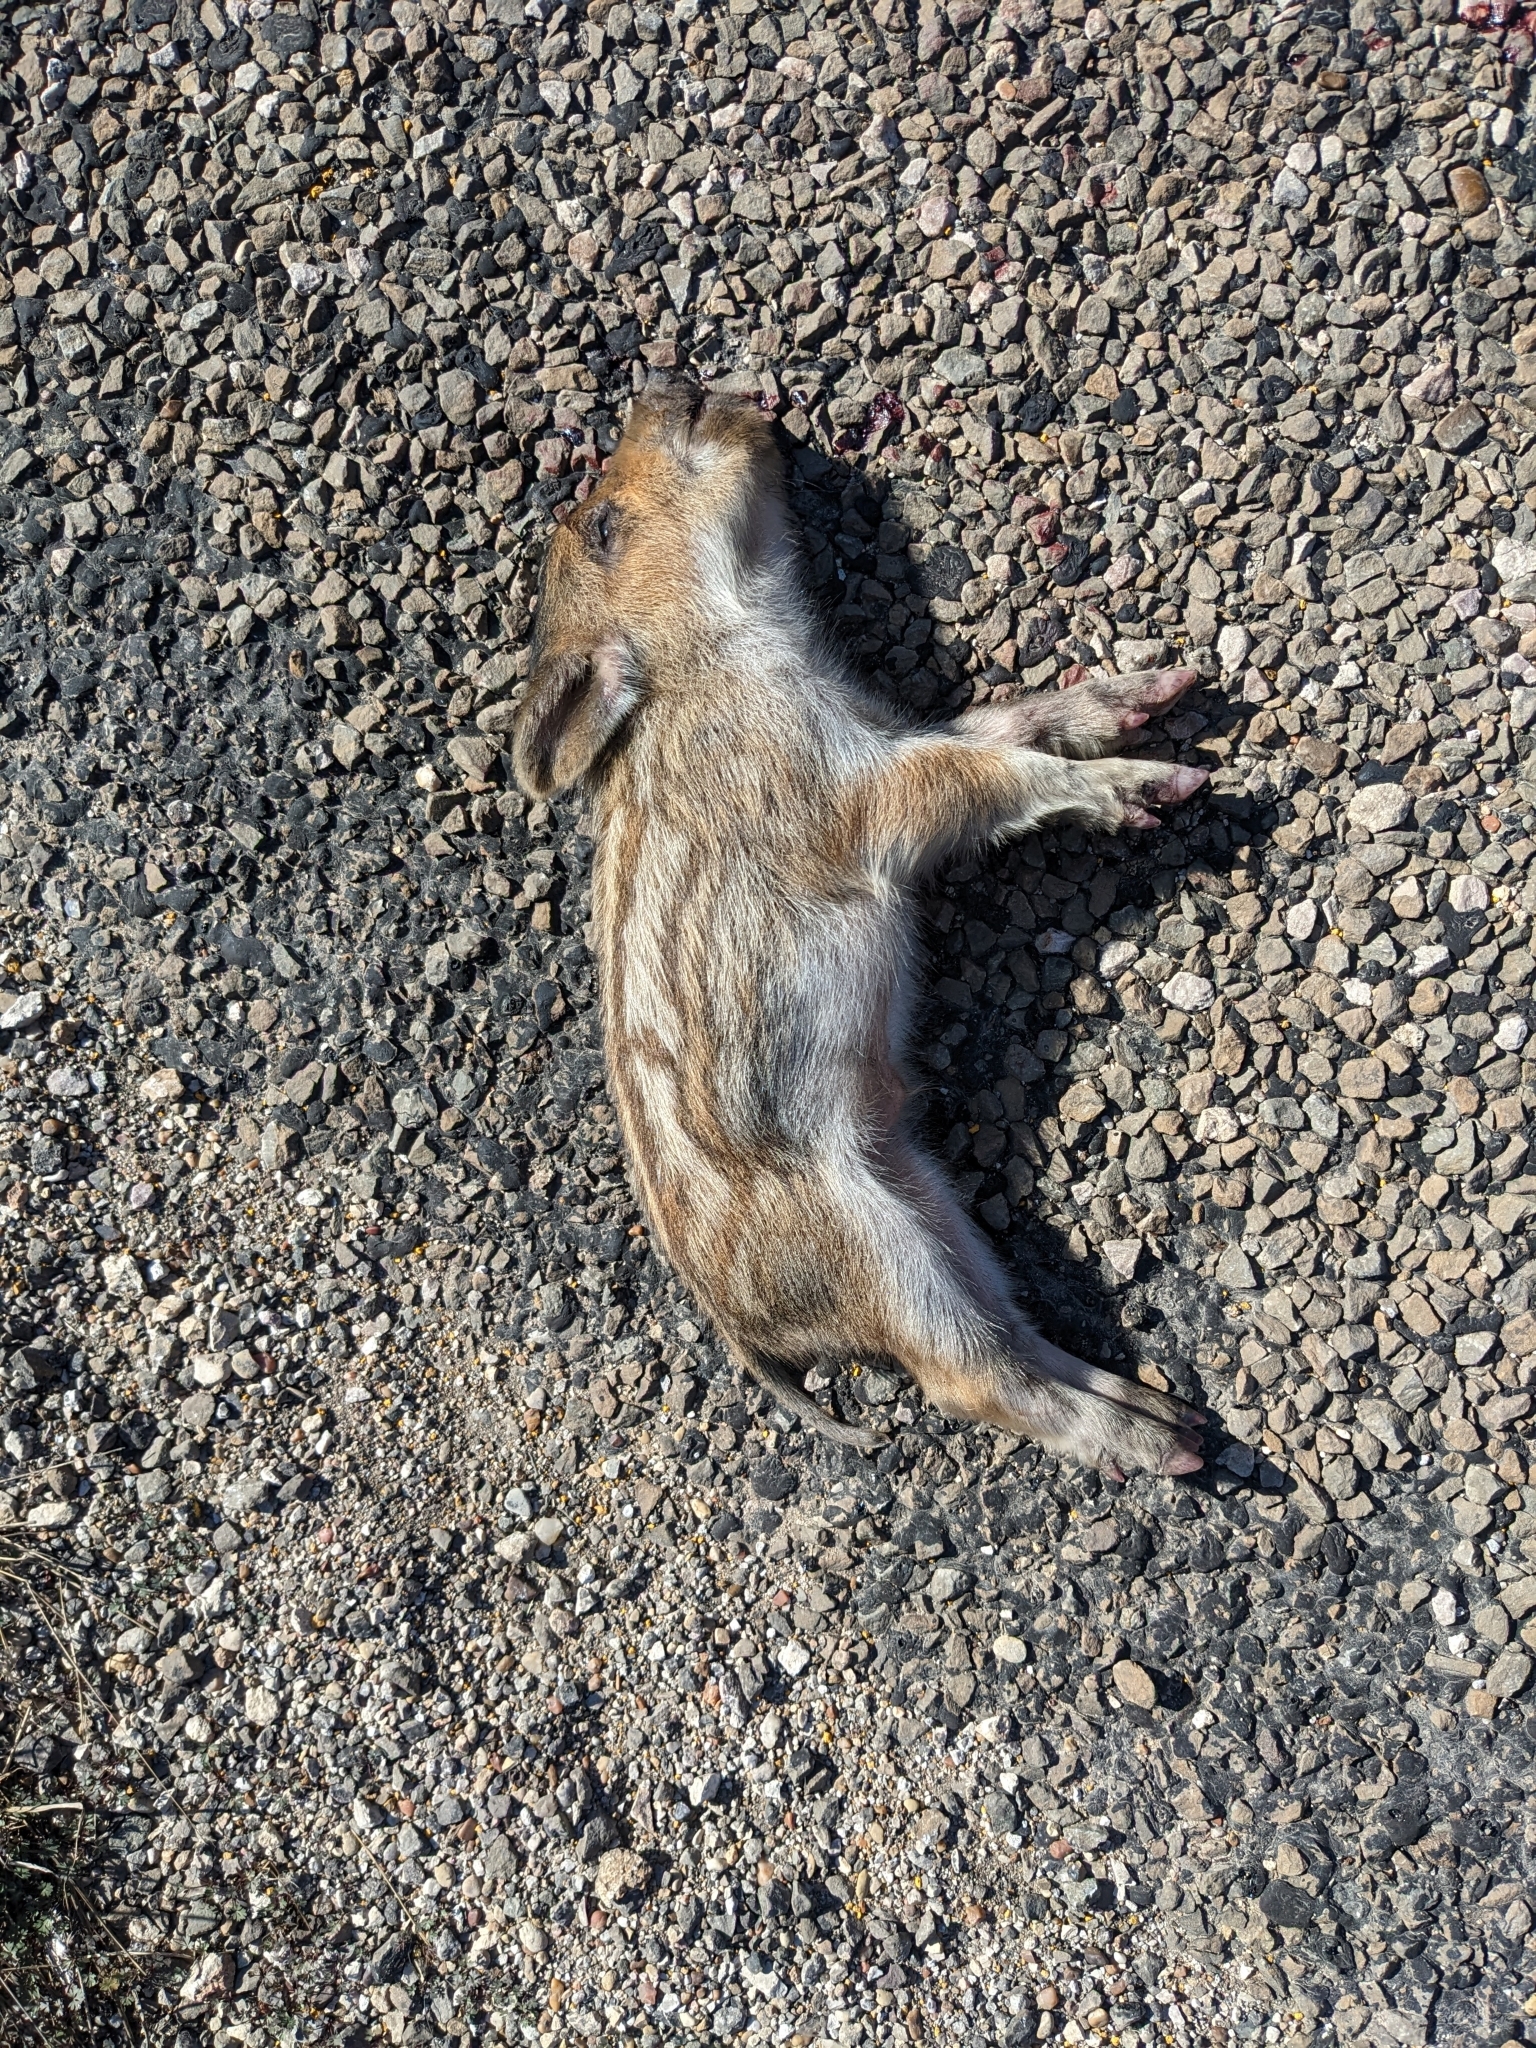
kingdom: Animalia
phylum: Chordata
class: Mammalia
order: Artiodactyla
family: Suidae
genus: Sus
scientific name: Sus scrofa
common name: Wild boar
